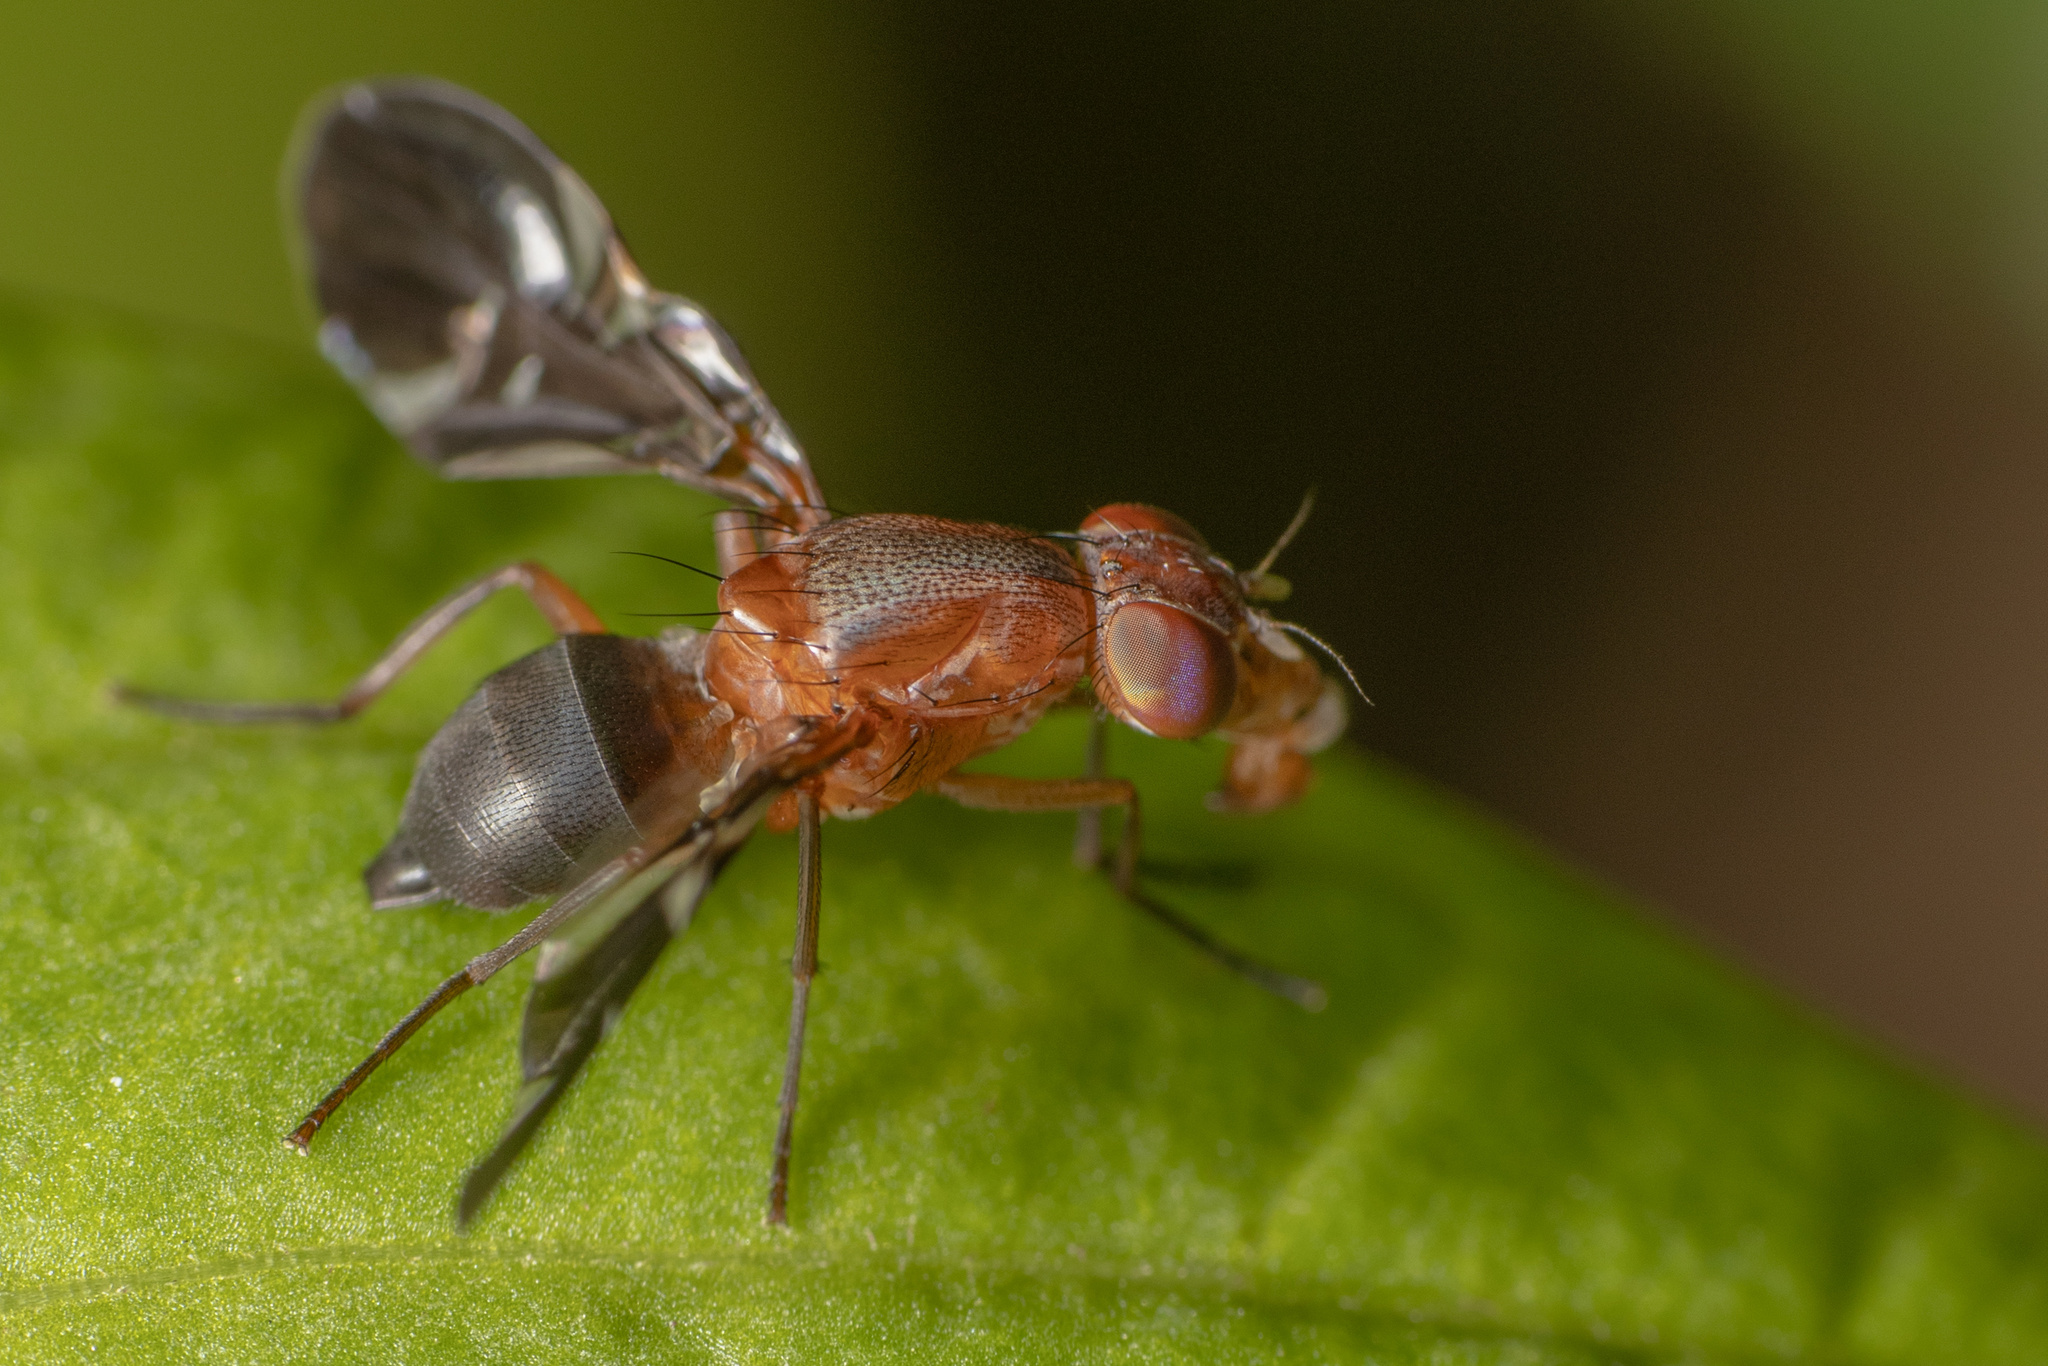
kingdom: Animalia
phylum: Arthropoda
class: Insecta
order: Diptera
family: Ulidiidae
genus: Delphinia
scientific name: Delphinia picta
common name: Common picture-winged fly
